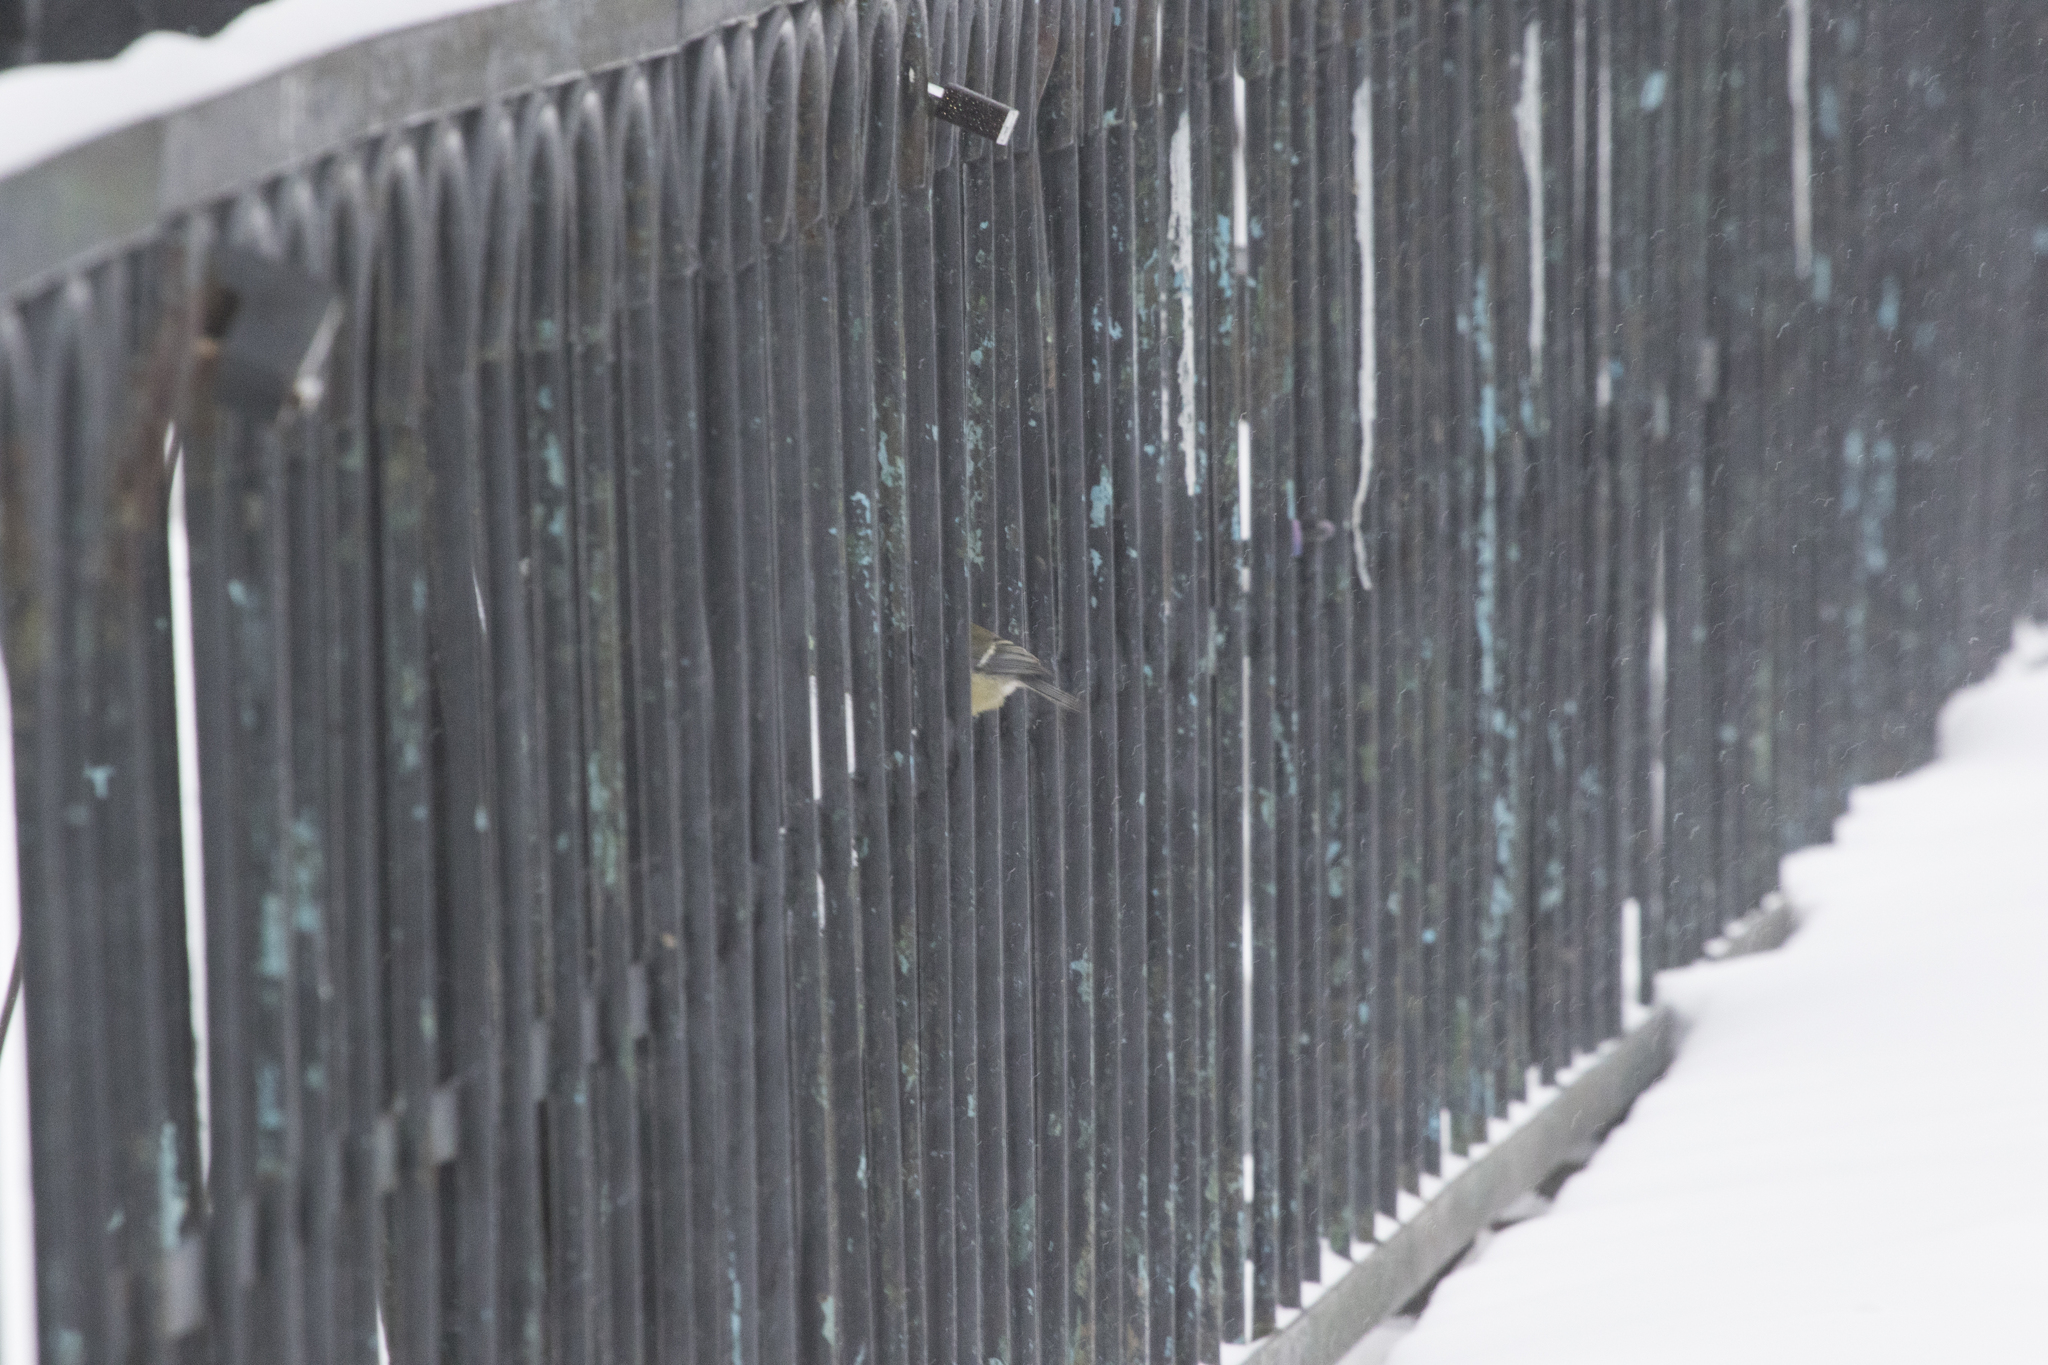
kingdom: Animalia
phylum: Chordata
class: Aves
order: Passeriformes
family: Paridae
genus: Parus
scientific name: Parus major
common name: Great tit
